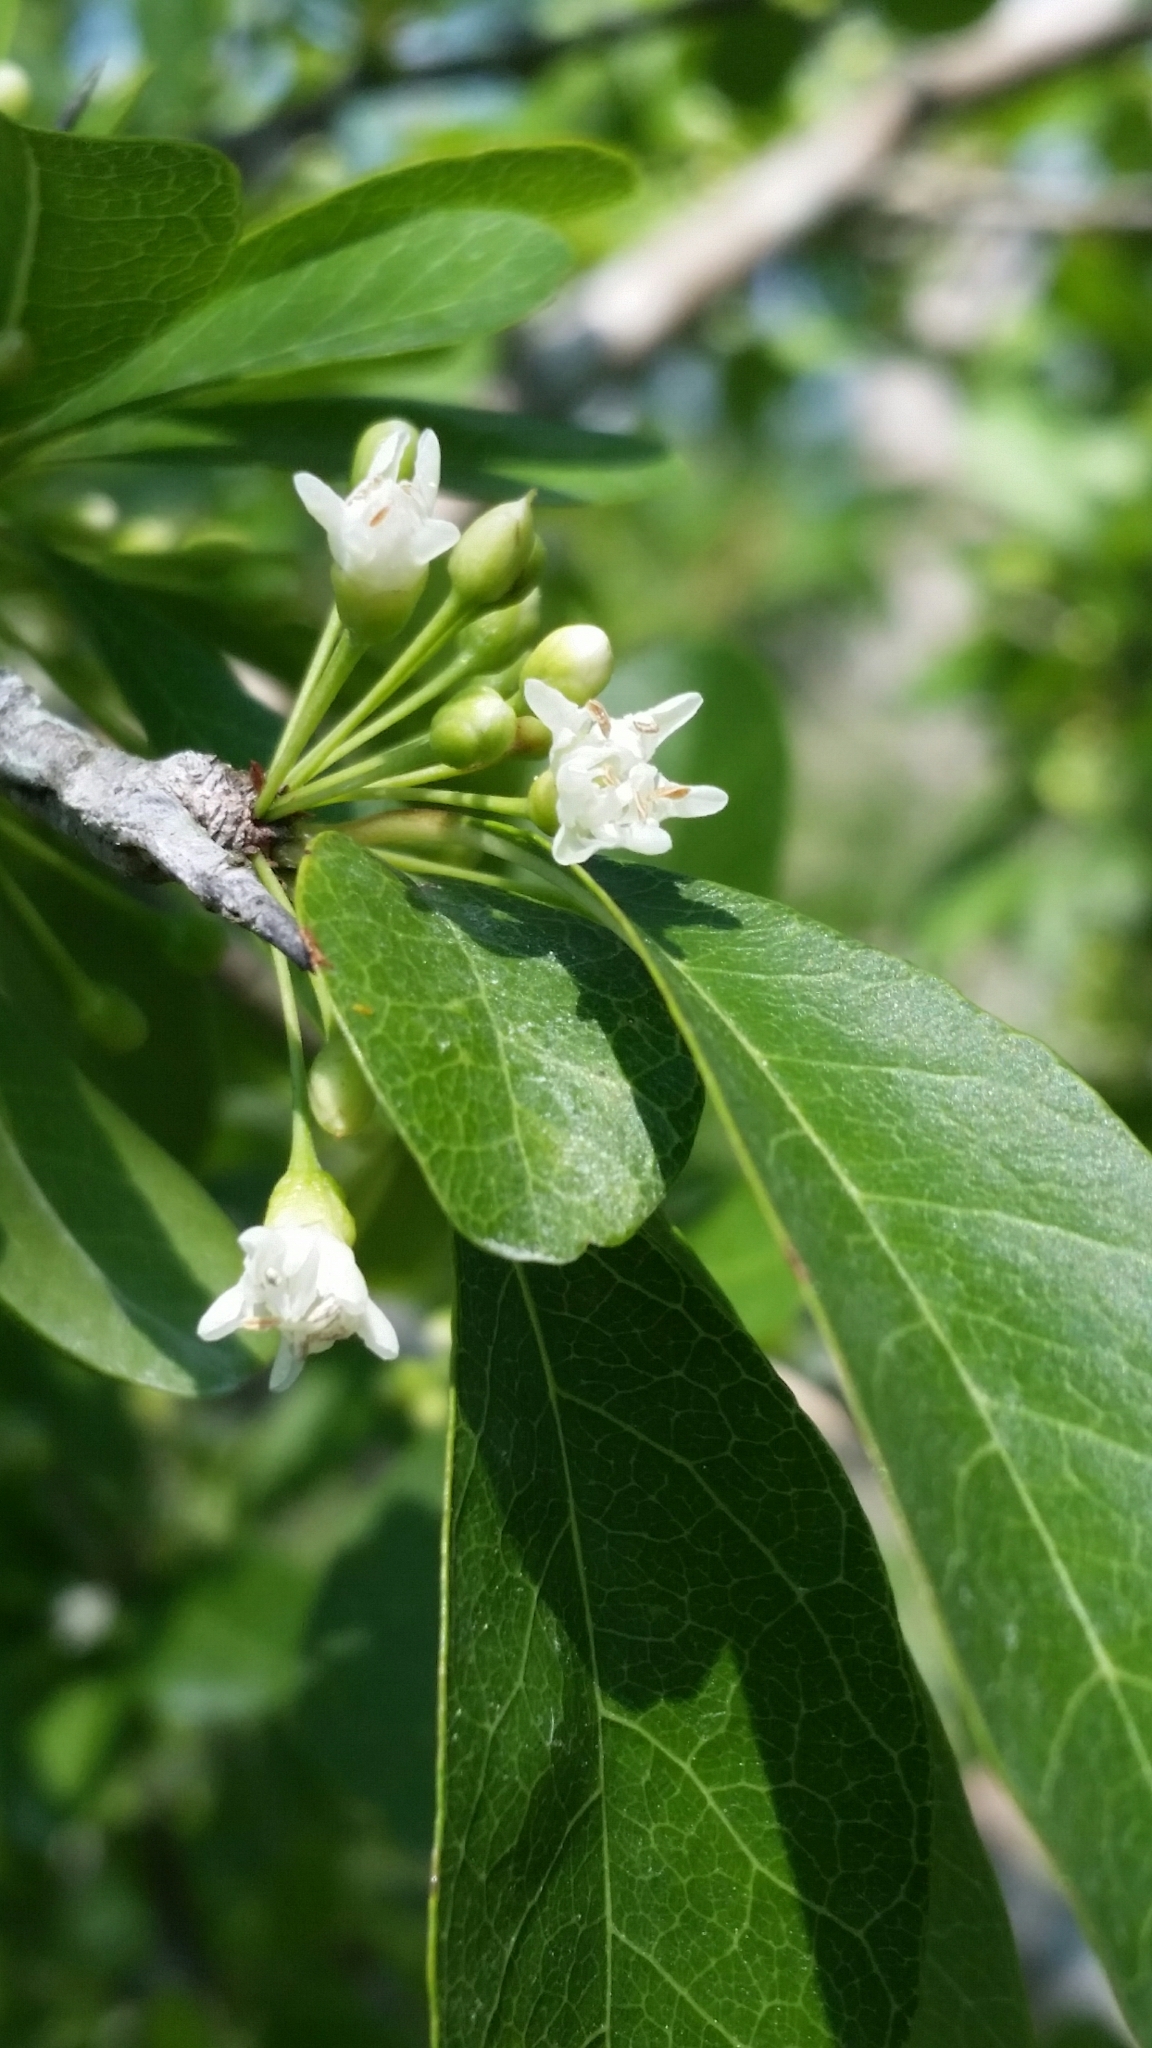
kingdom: Plantae
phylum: Tracheophyta
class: Magnoliopsida
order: Ericales
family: Sapotaceae
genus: Sideroxylon
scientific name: Sideroxylon reclinatum
